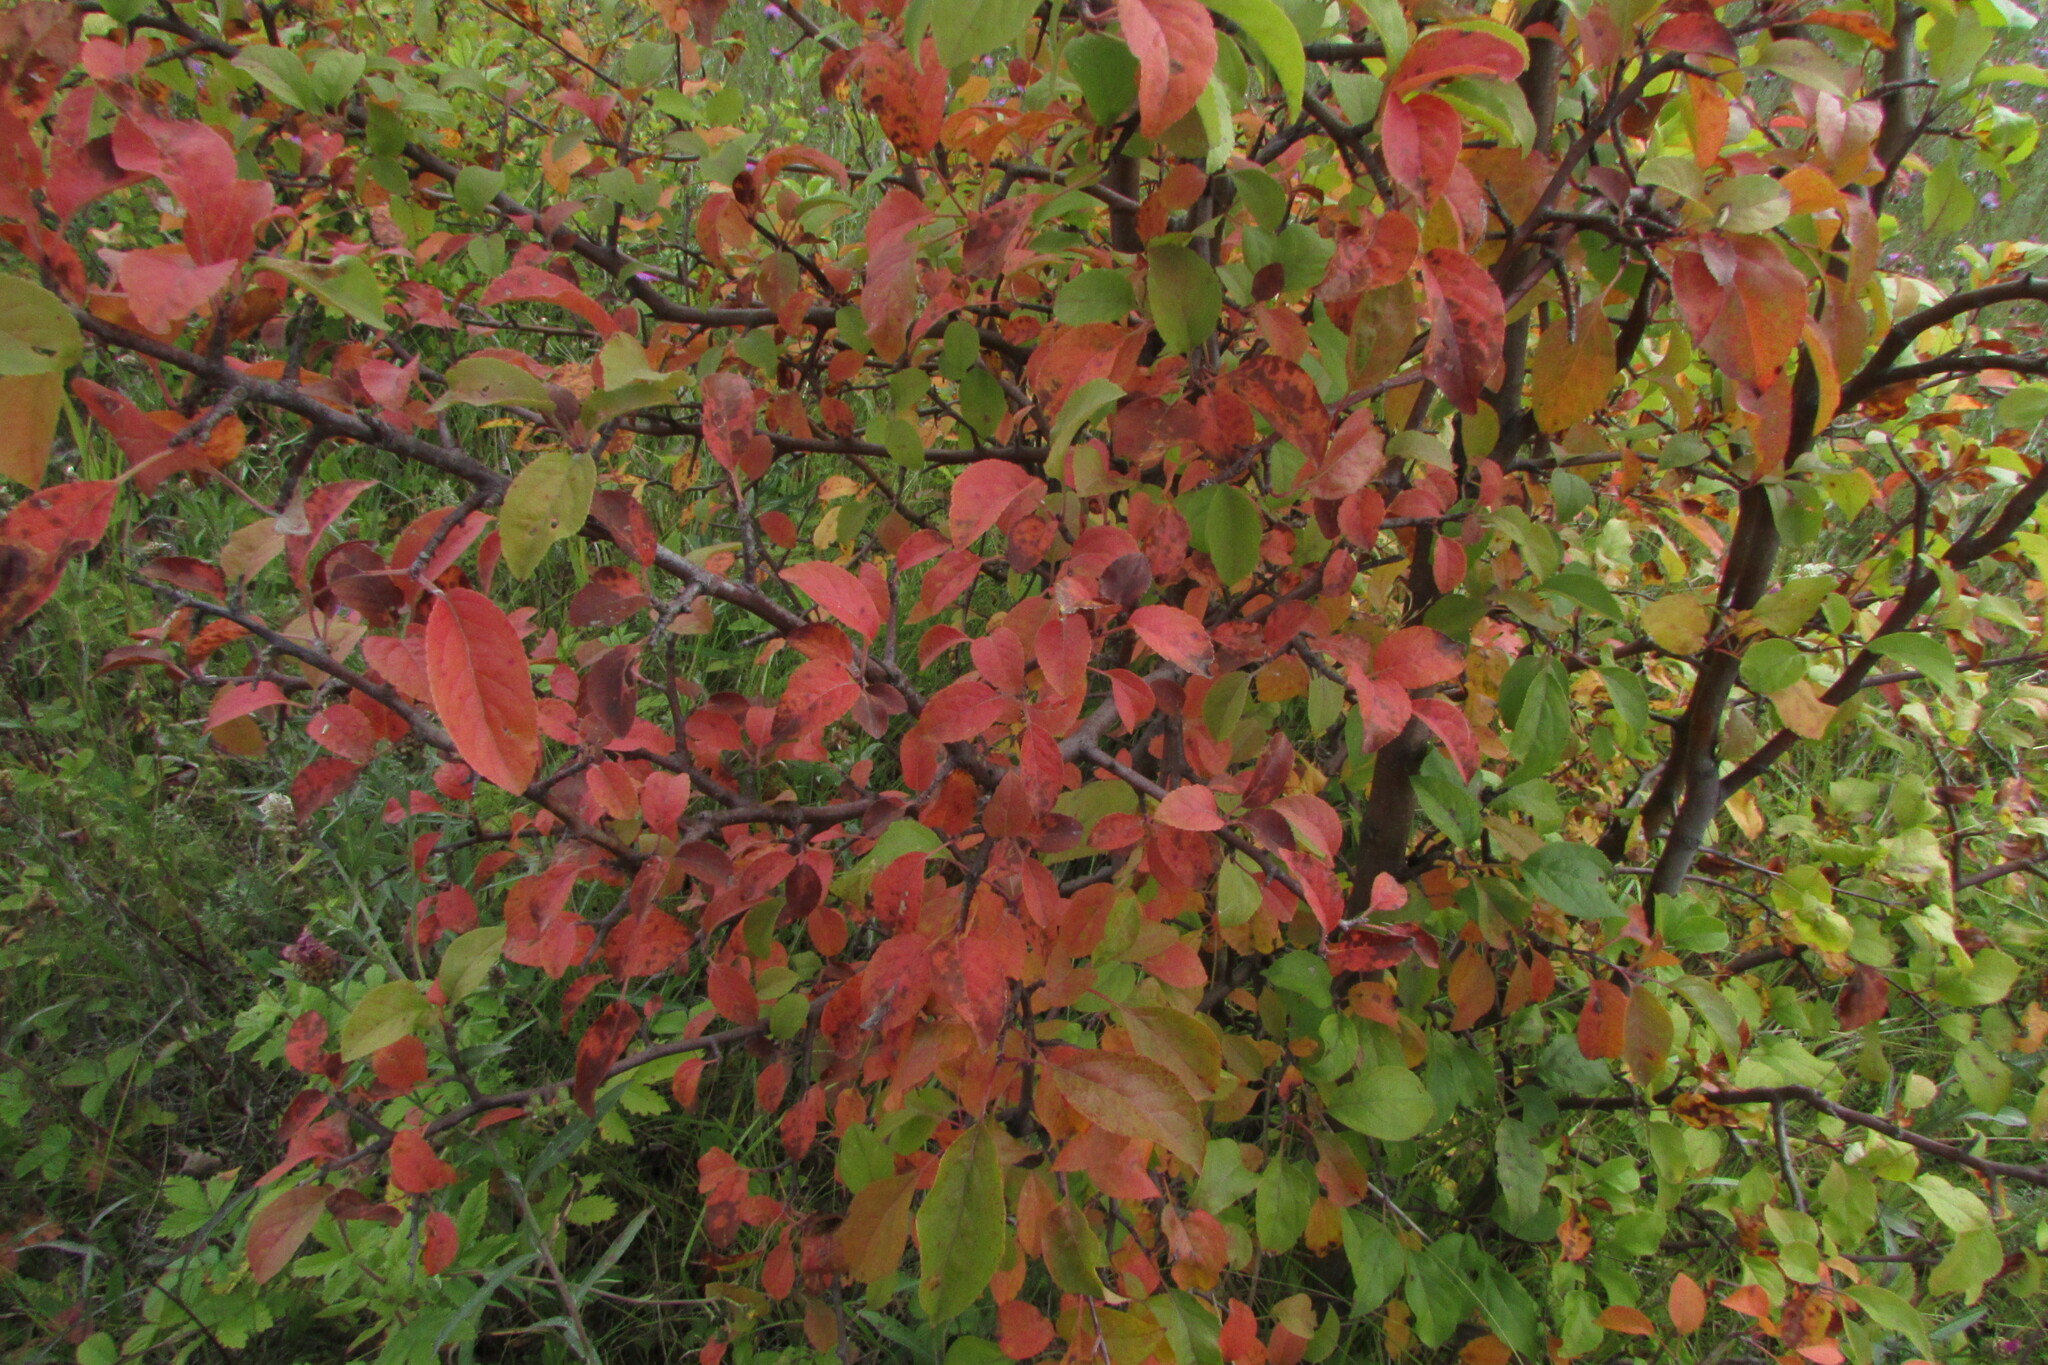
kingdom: Plantae
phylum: Tracheophyta
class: Magnoliopsida
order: Rosales
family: Rosaceae
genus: Prunus
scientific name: Prunus spinosa
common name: Blackthorn
